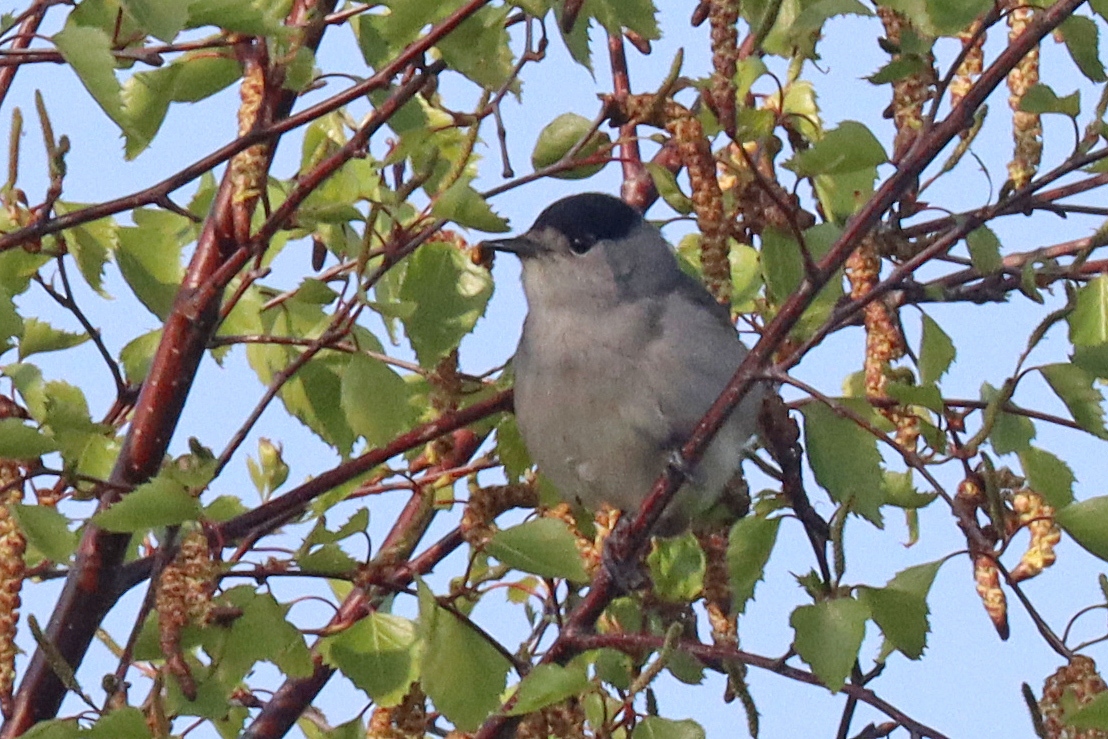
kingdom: Animalia
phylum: Chordata
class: Aves
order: Passeriformes
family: Sylviidae
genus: Sylvia
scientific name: Sylvia atricapilla
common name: Eurasian blackcap
